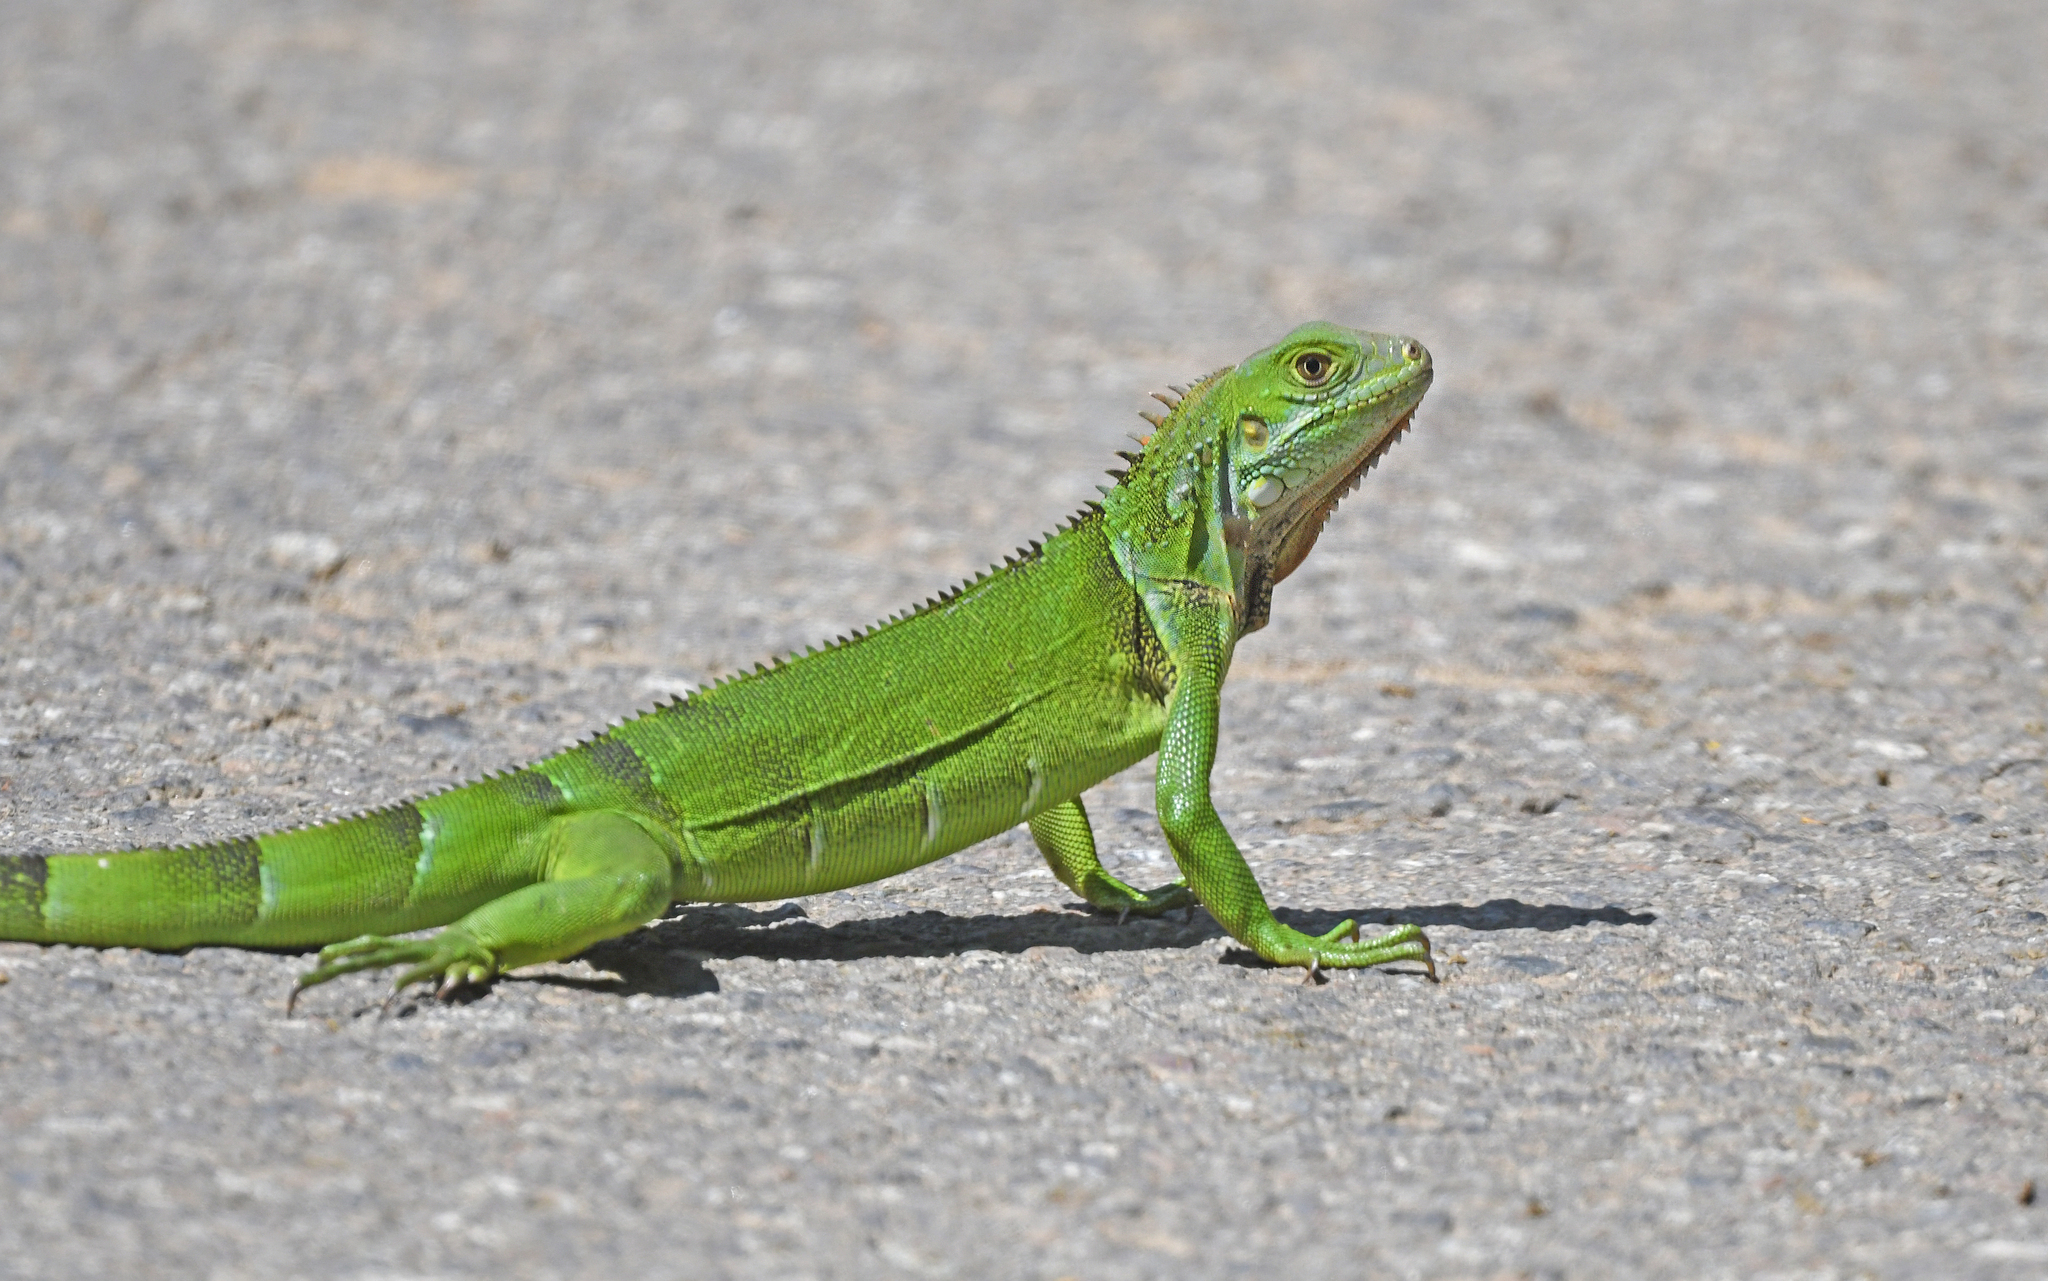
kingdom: Animalia
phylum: Chordata
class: Squamata
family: Iguanidae
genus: Iguana
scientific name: Iguana iguana
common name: Green iguana
